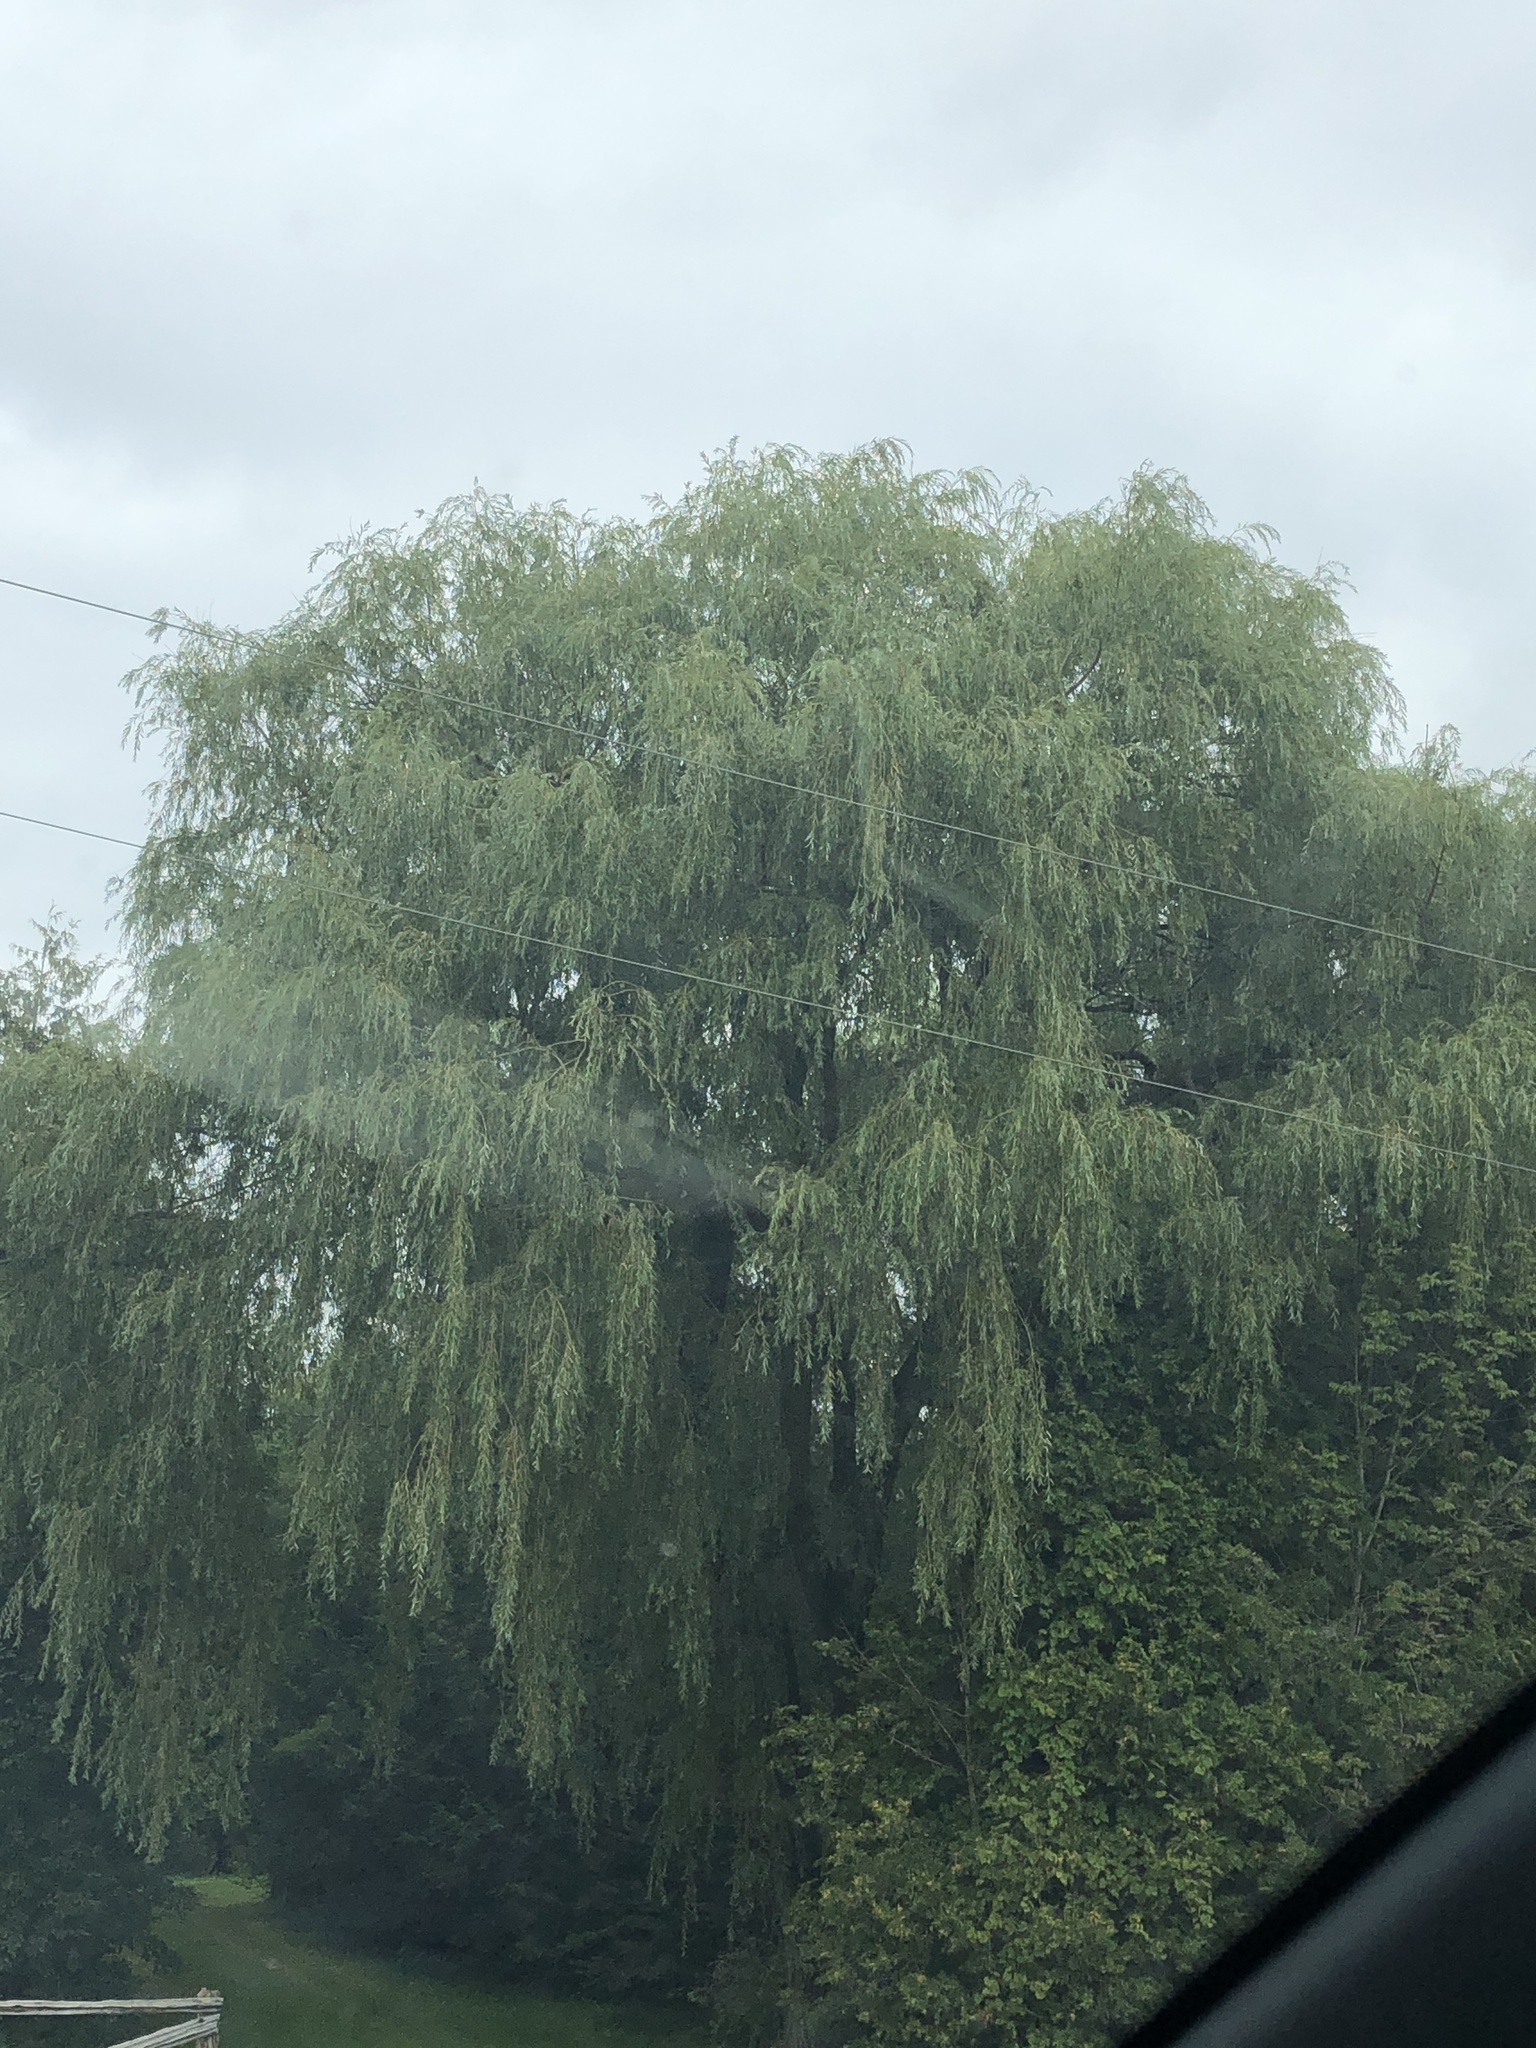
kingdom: Plantae
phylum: Tracheophyta
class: Magnoliopsida
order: Malpighiales
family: Salicaceae
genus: Salix
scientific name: Salix pendulina
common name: Wisconsin weeping willow
